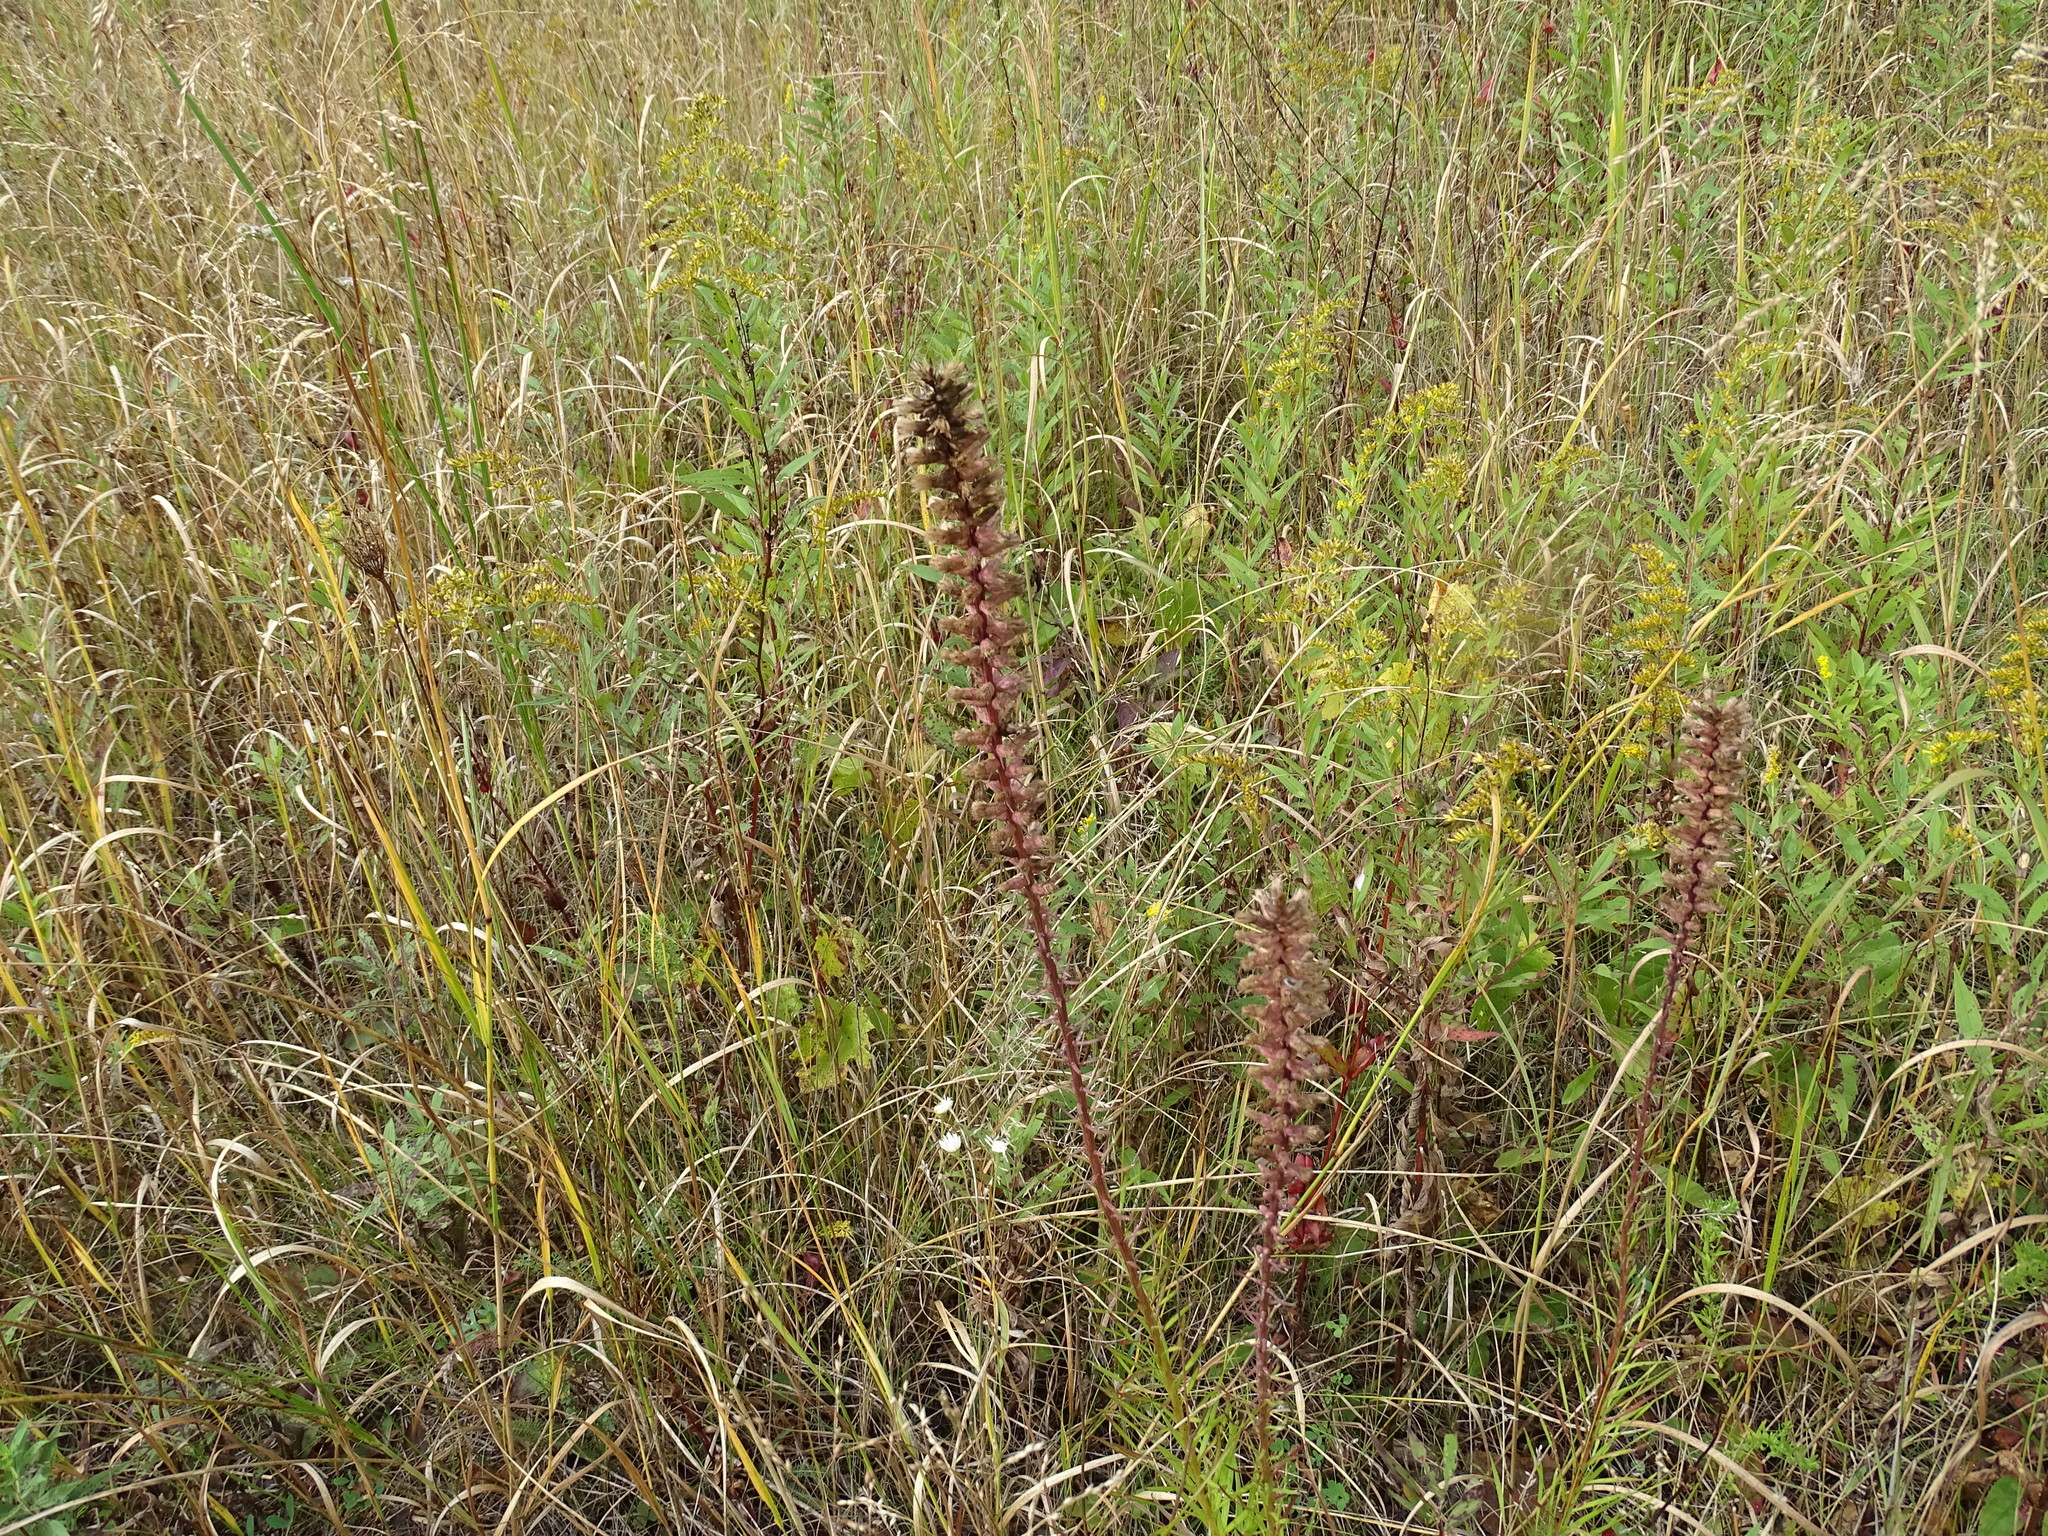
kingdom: Plantae
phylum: Tracheophyta
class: Magnoliopsida
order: Asterales
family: Asteraceae
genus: Liatris
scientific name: Liatris spicata
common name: Florist gayfeather
